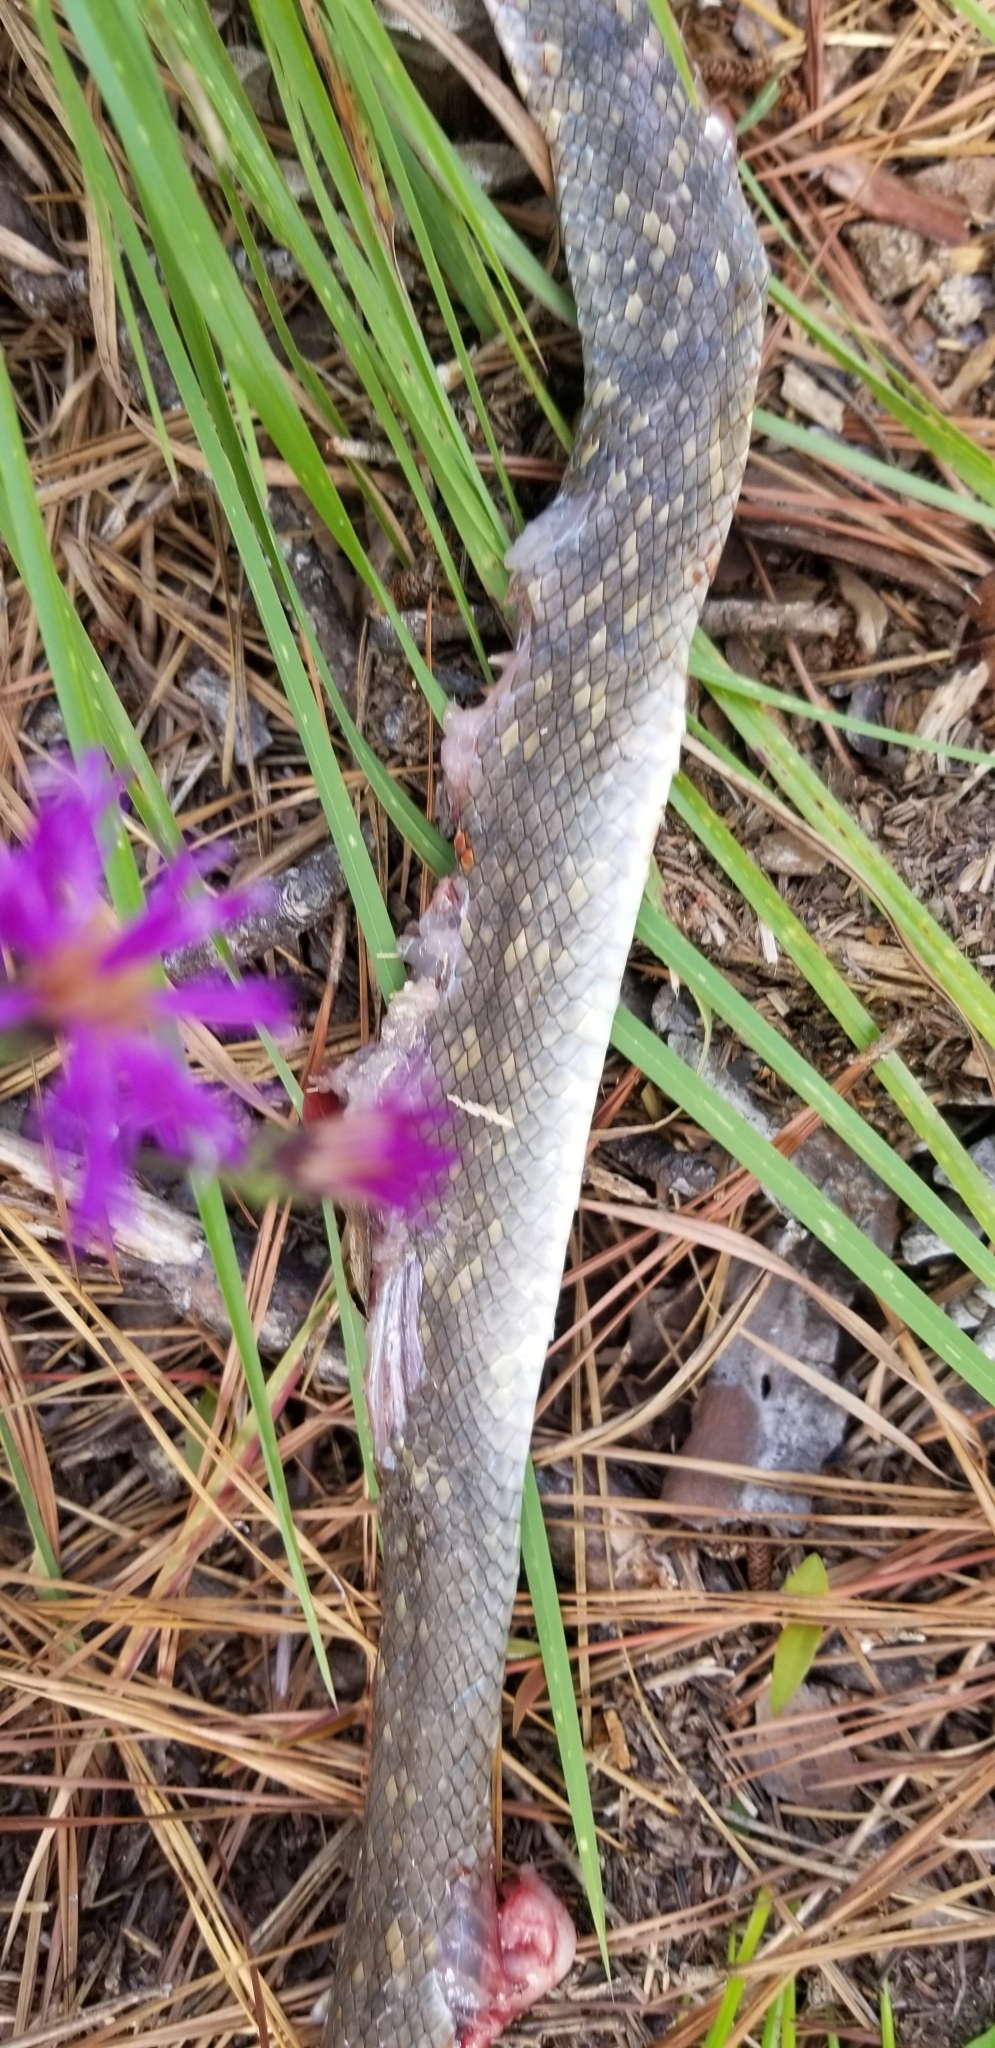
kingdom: Animalia
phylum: Chordata
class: Squamata
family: Colubridae
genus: Coluber
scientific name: Coluber constrictor
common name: Eastern racer
